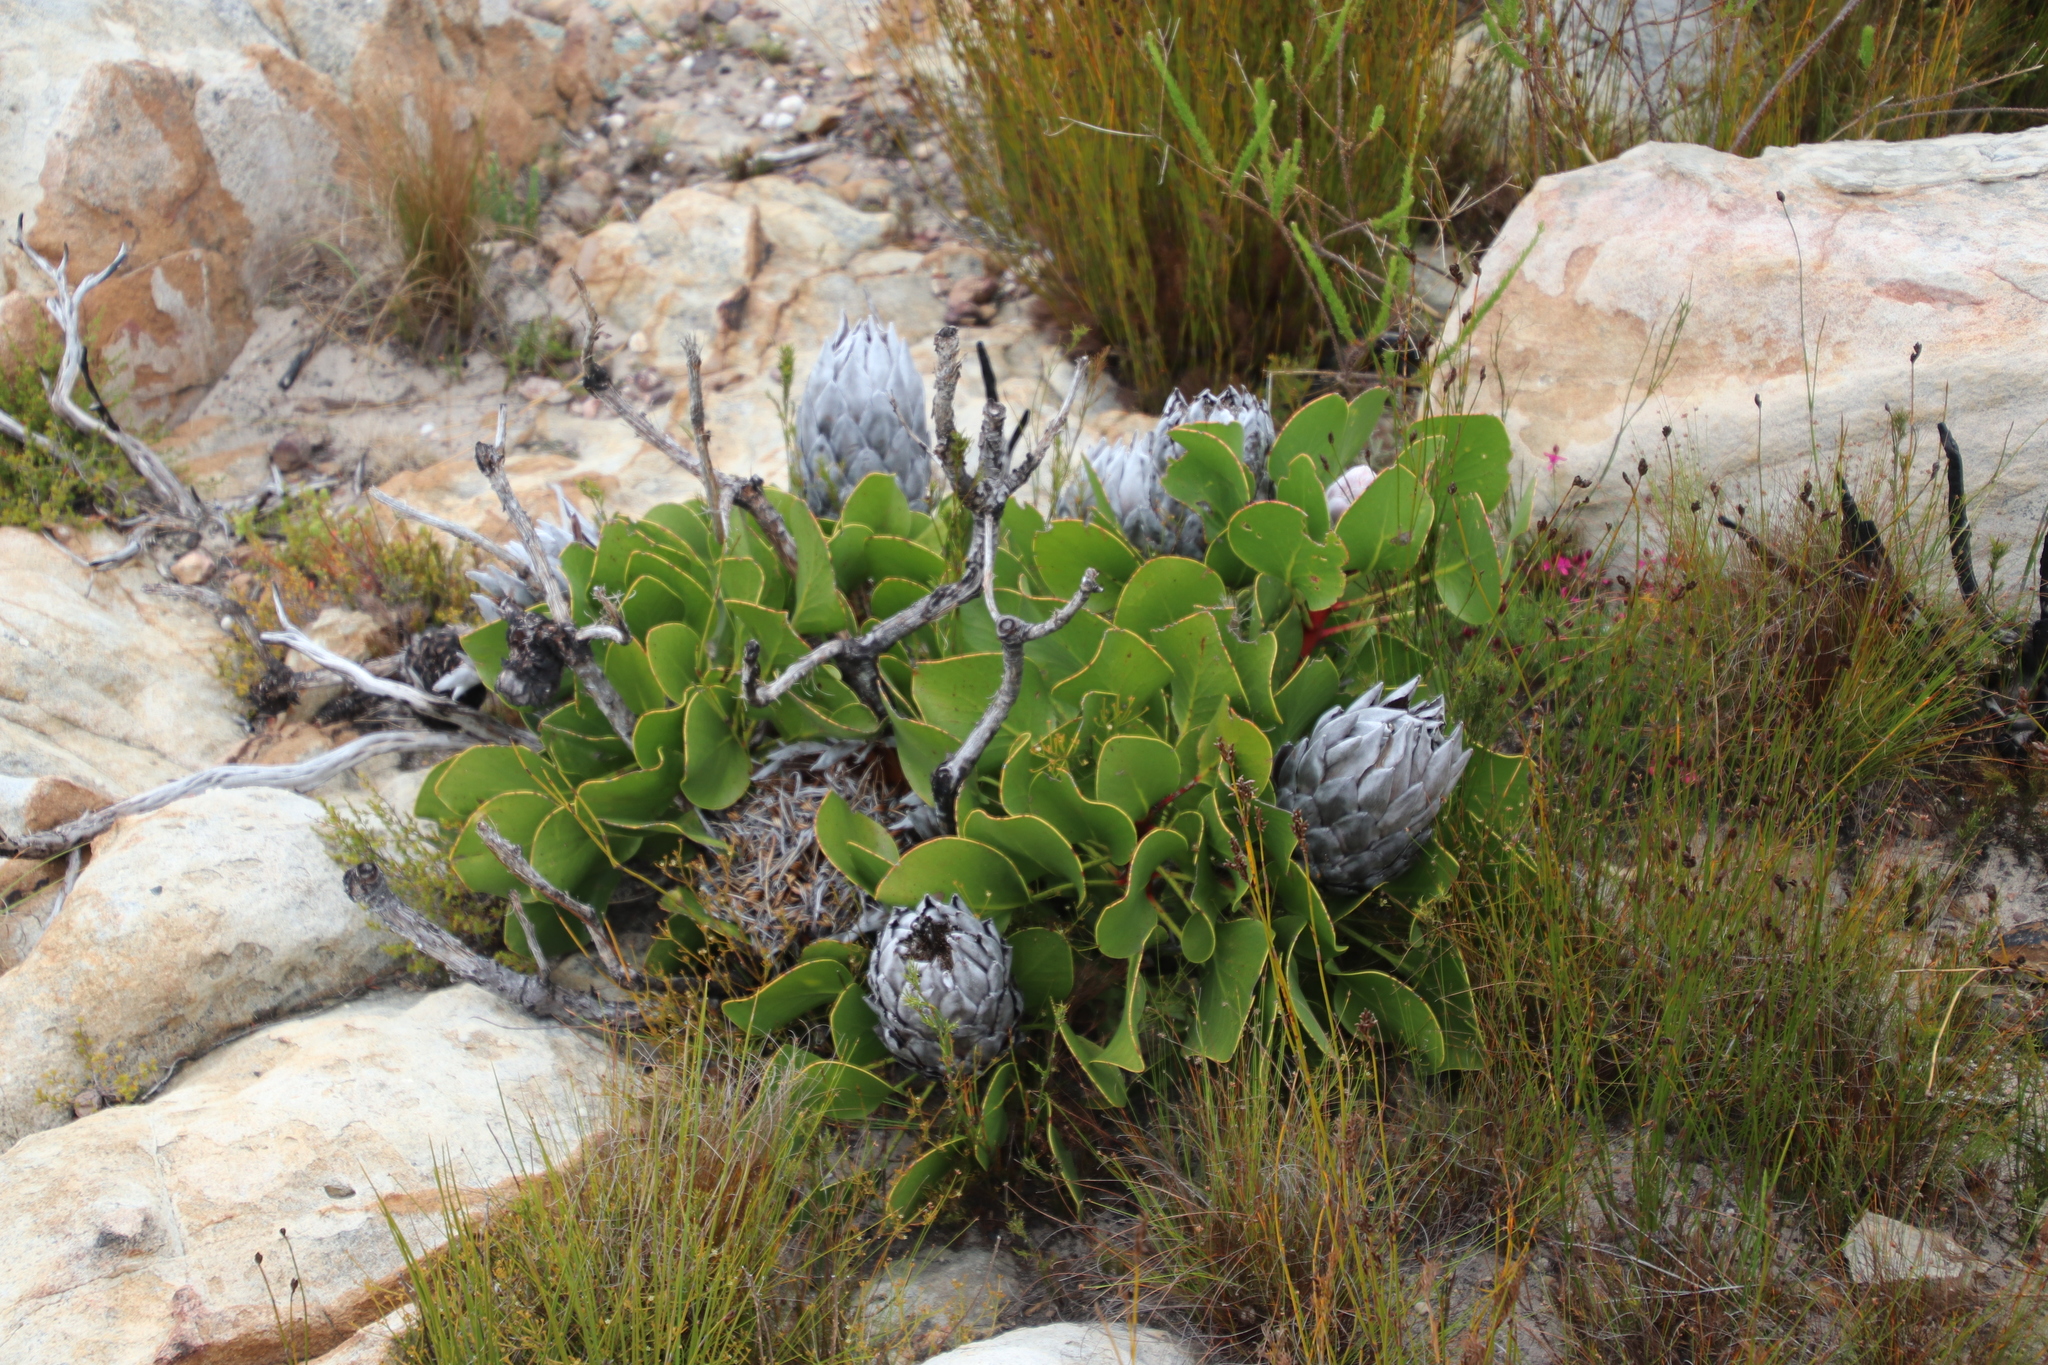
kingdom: Plantae
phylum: Tracheophyta
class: Magnoliopsida
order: Proteales
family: Proteaceae
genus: Protea
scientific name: Protea cynaroides
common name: King protea
